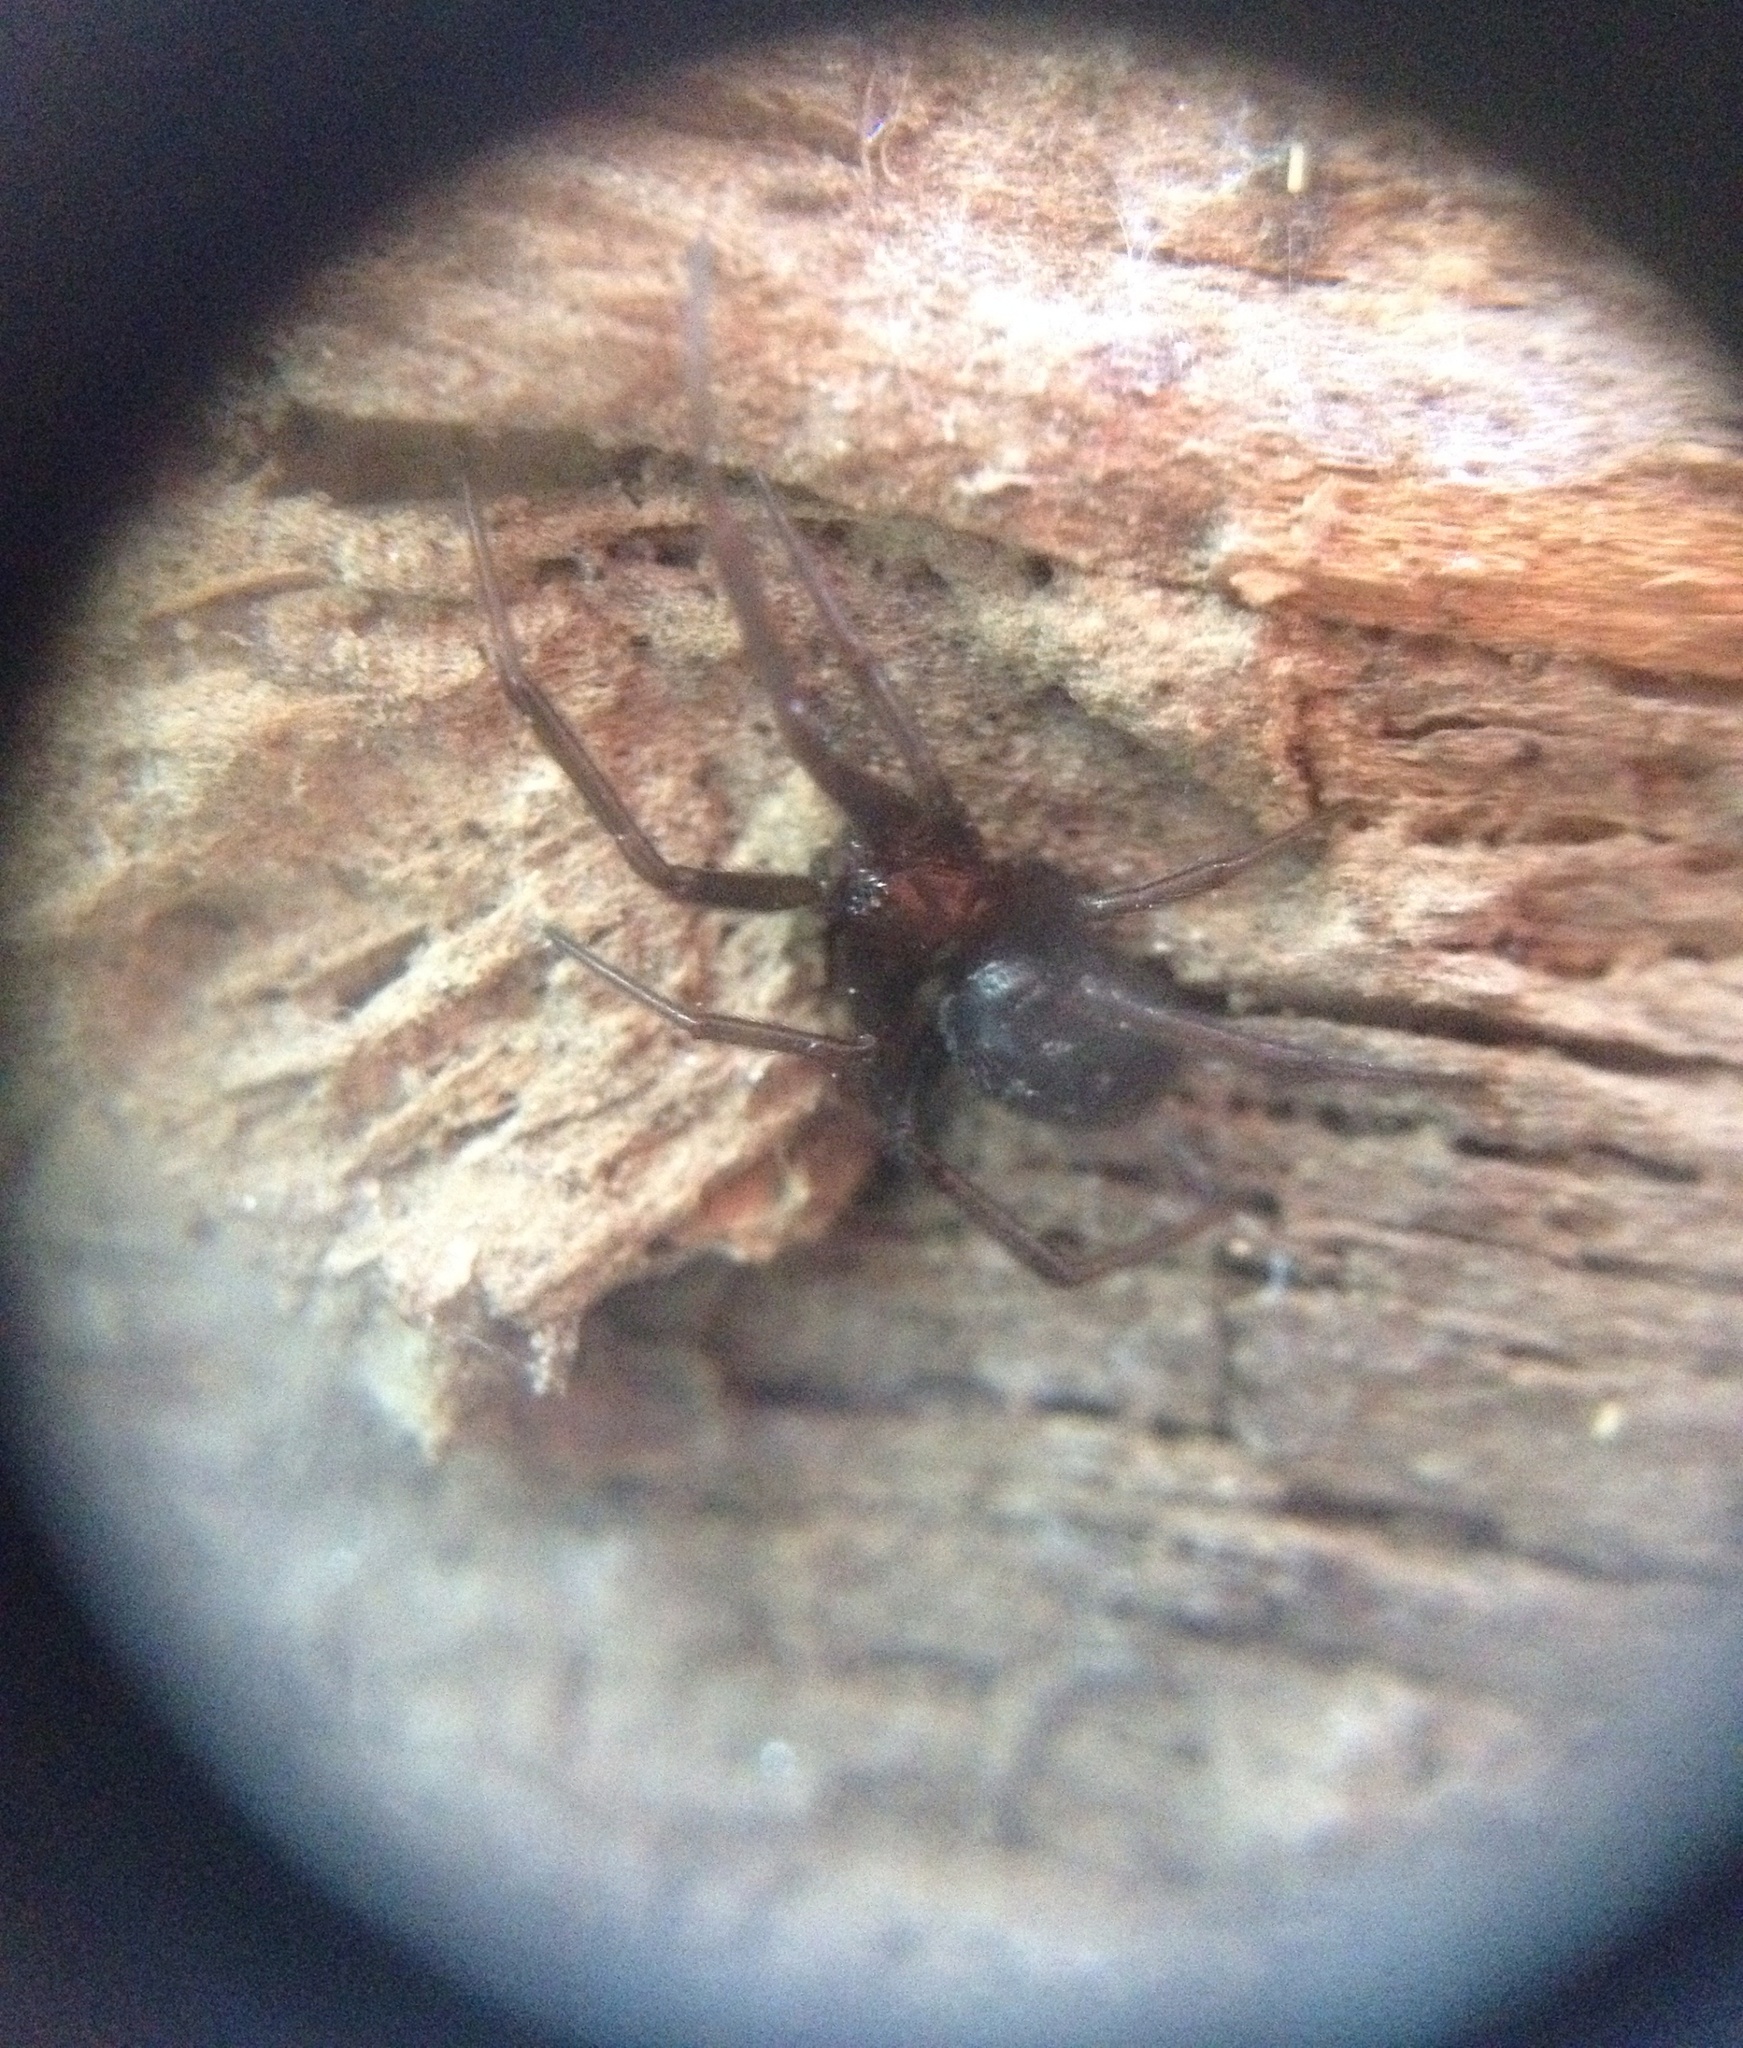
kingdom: Animalia
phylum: Arthropoda
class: Arachnida
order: Araneae
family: Theridiidae
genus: Steatoda
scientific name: Steatoda capensis
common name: Cobweb weaver
